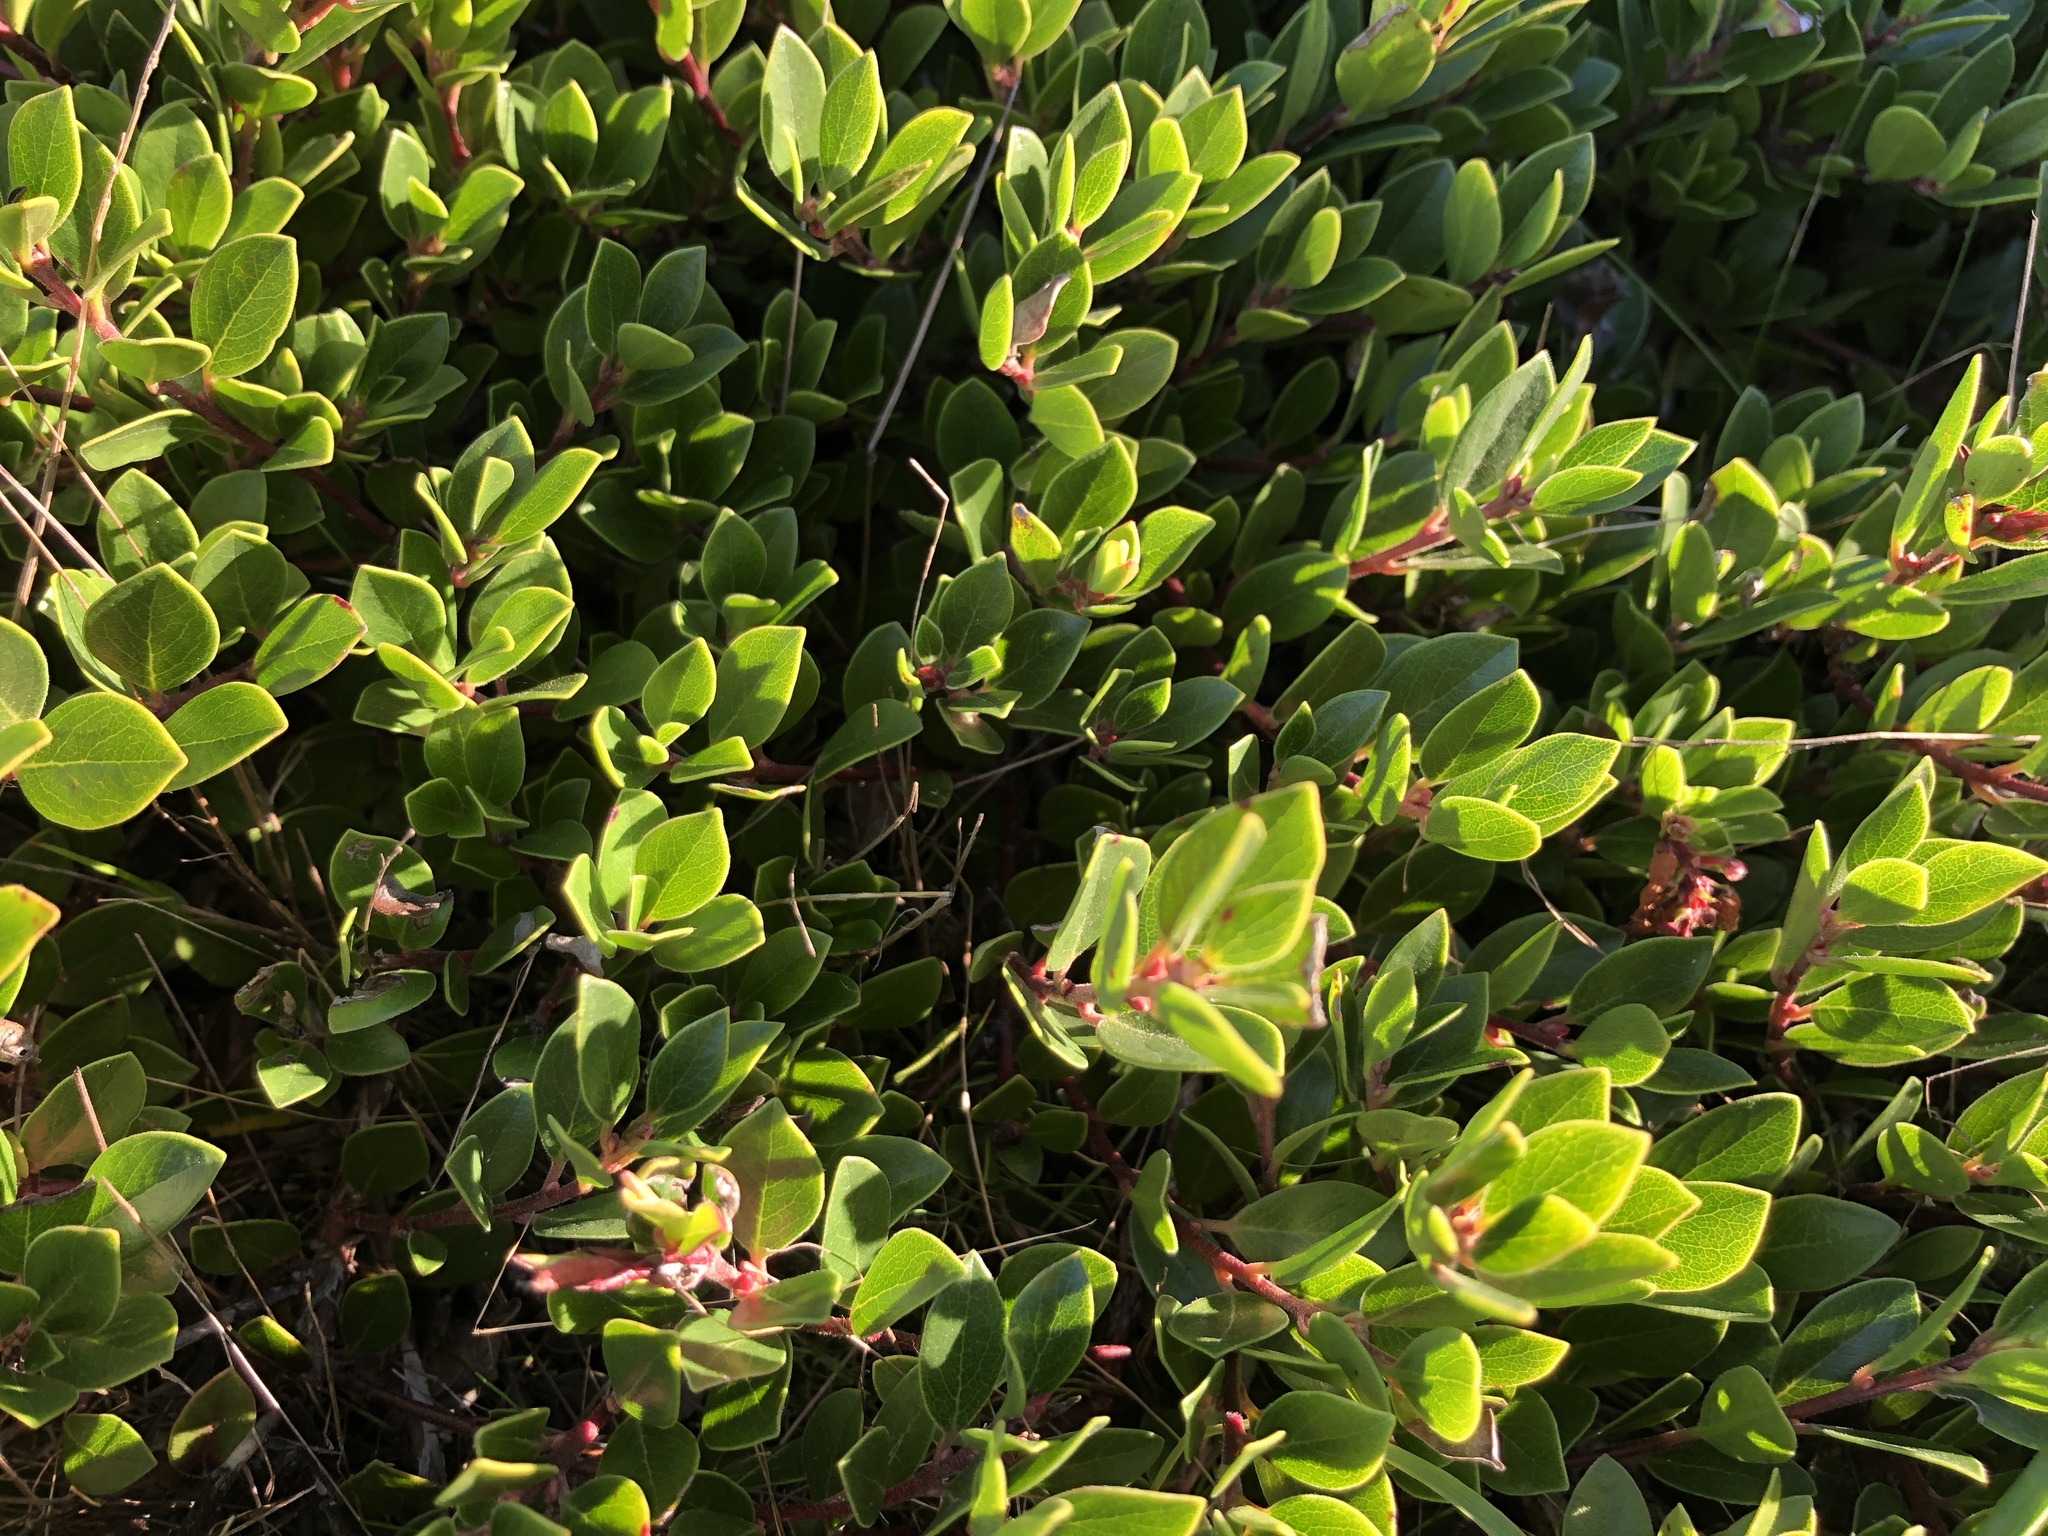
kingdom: Plantae
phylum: Tracheophyta
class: Magnoliopsida
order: Ericales
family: Ericaceae
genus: Arctostaphylos
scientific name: Arctostaphylos uva-ursi
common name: Bearberry
